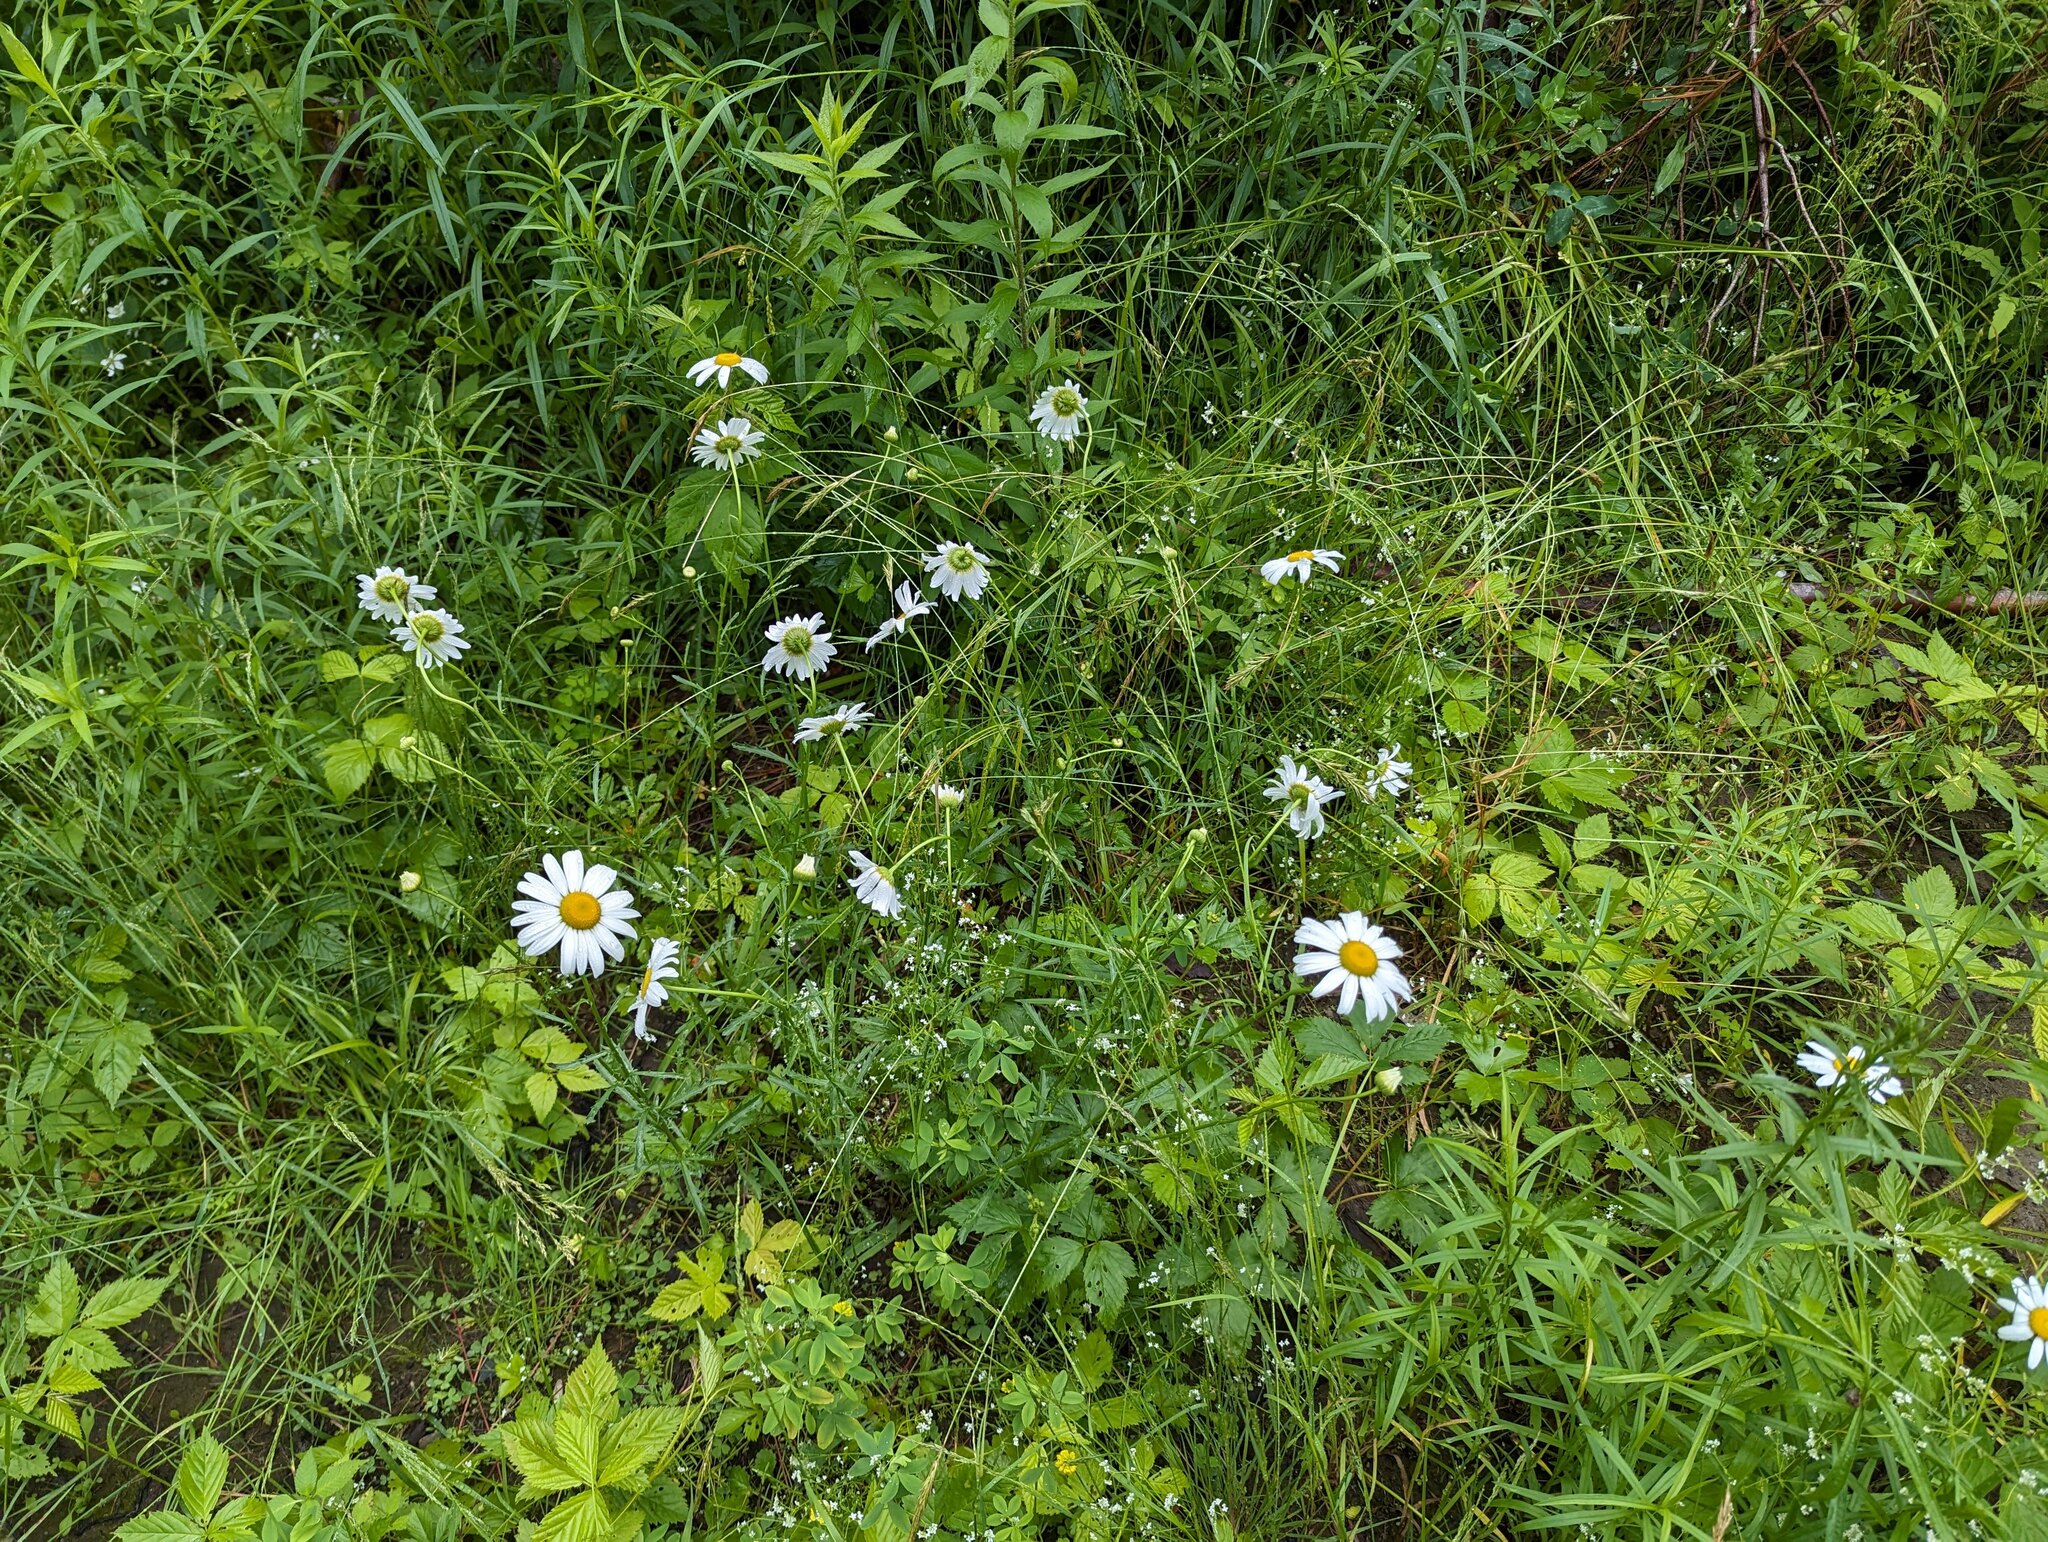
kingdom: Plantae
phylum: Tracheophyta
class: Magnoliopsida
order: Asterales
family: Asteraceae
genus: Leucanthemum
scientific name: Leucanthemum vulgare
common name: Oxeye daisy
